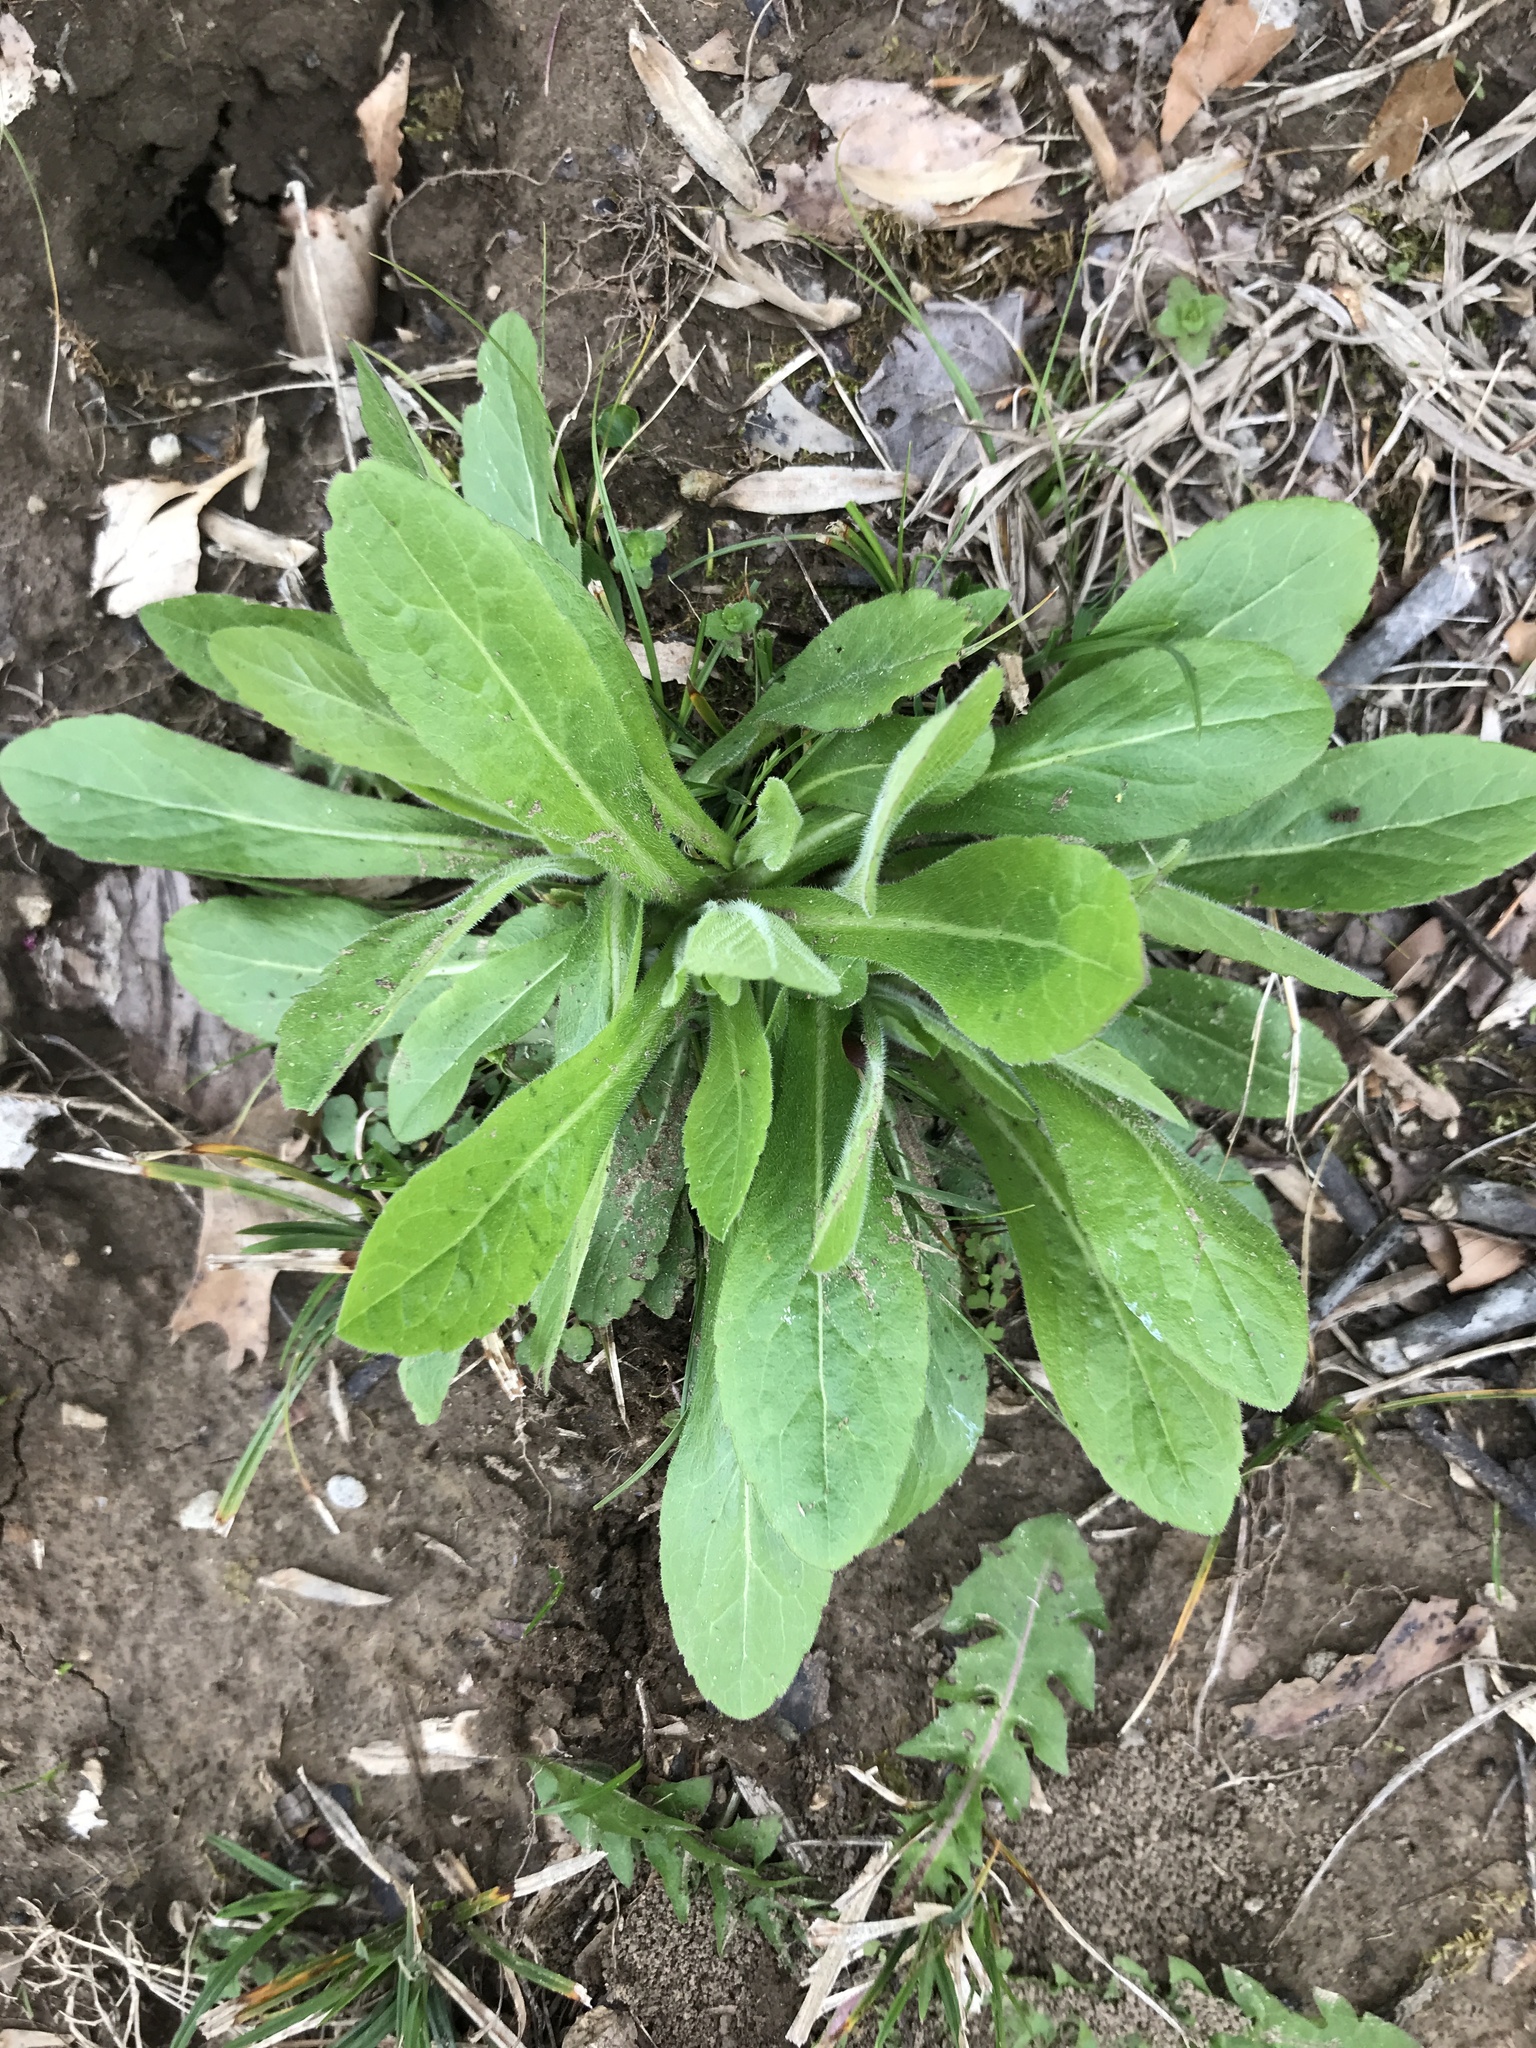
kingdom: Plantae
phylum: Tracheophyta
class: Magnoliopsida
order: Asterales
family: Asteraceae
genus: Erigeron
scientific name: Erigeron philadelphicus
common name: Robin's-plantain
